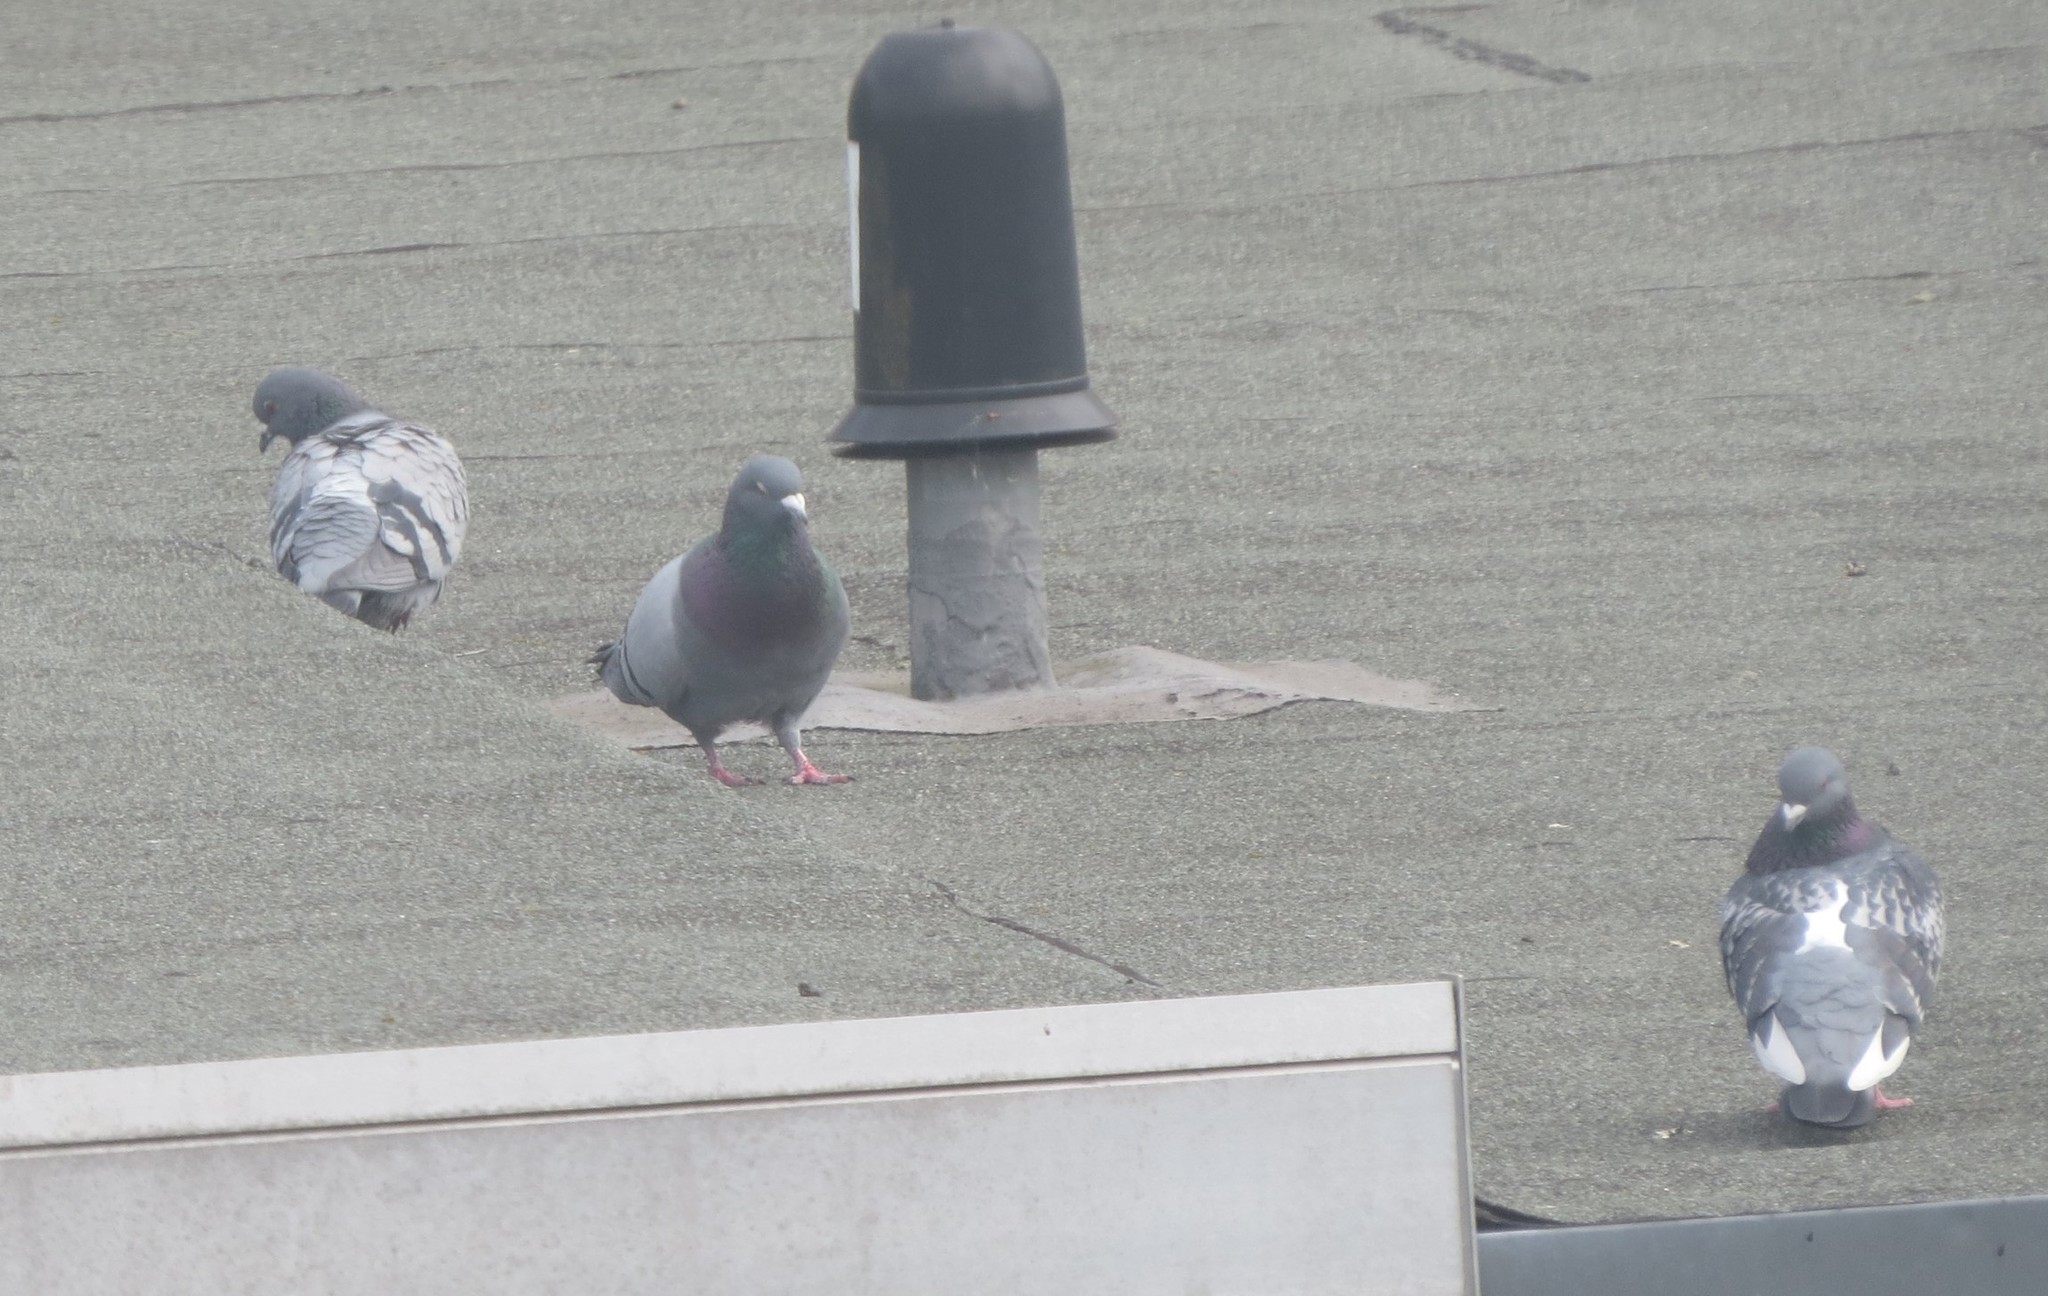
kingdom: Animalia
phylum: Chordata
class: Aves
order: Columbiformes
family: Columbidae
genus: Columba
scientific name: Columba livia
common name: Rock pigeon
